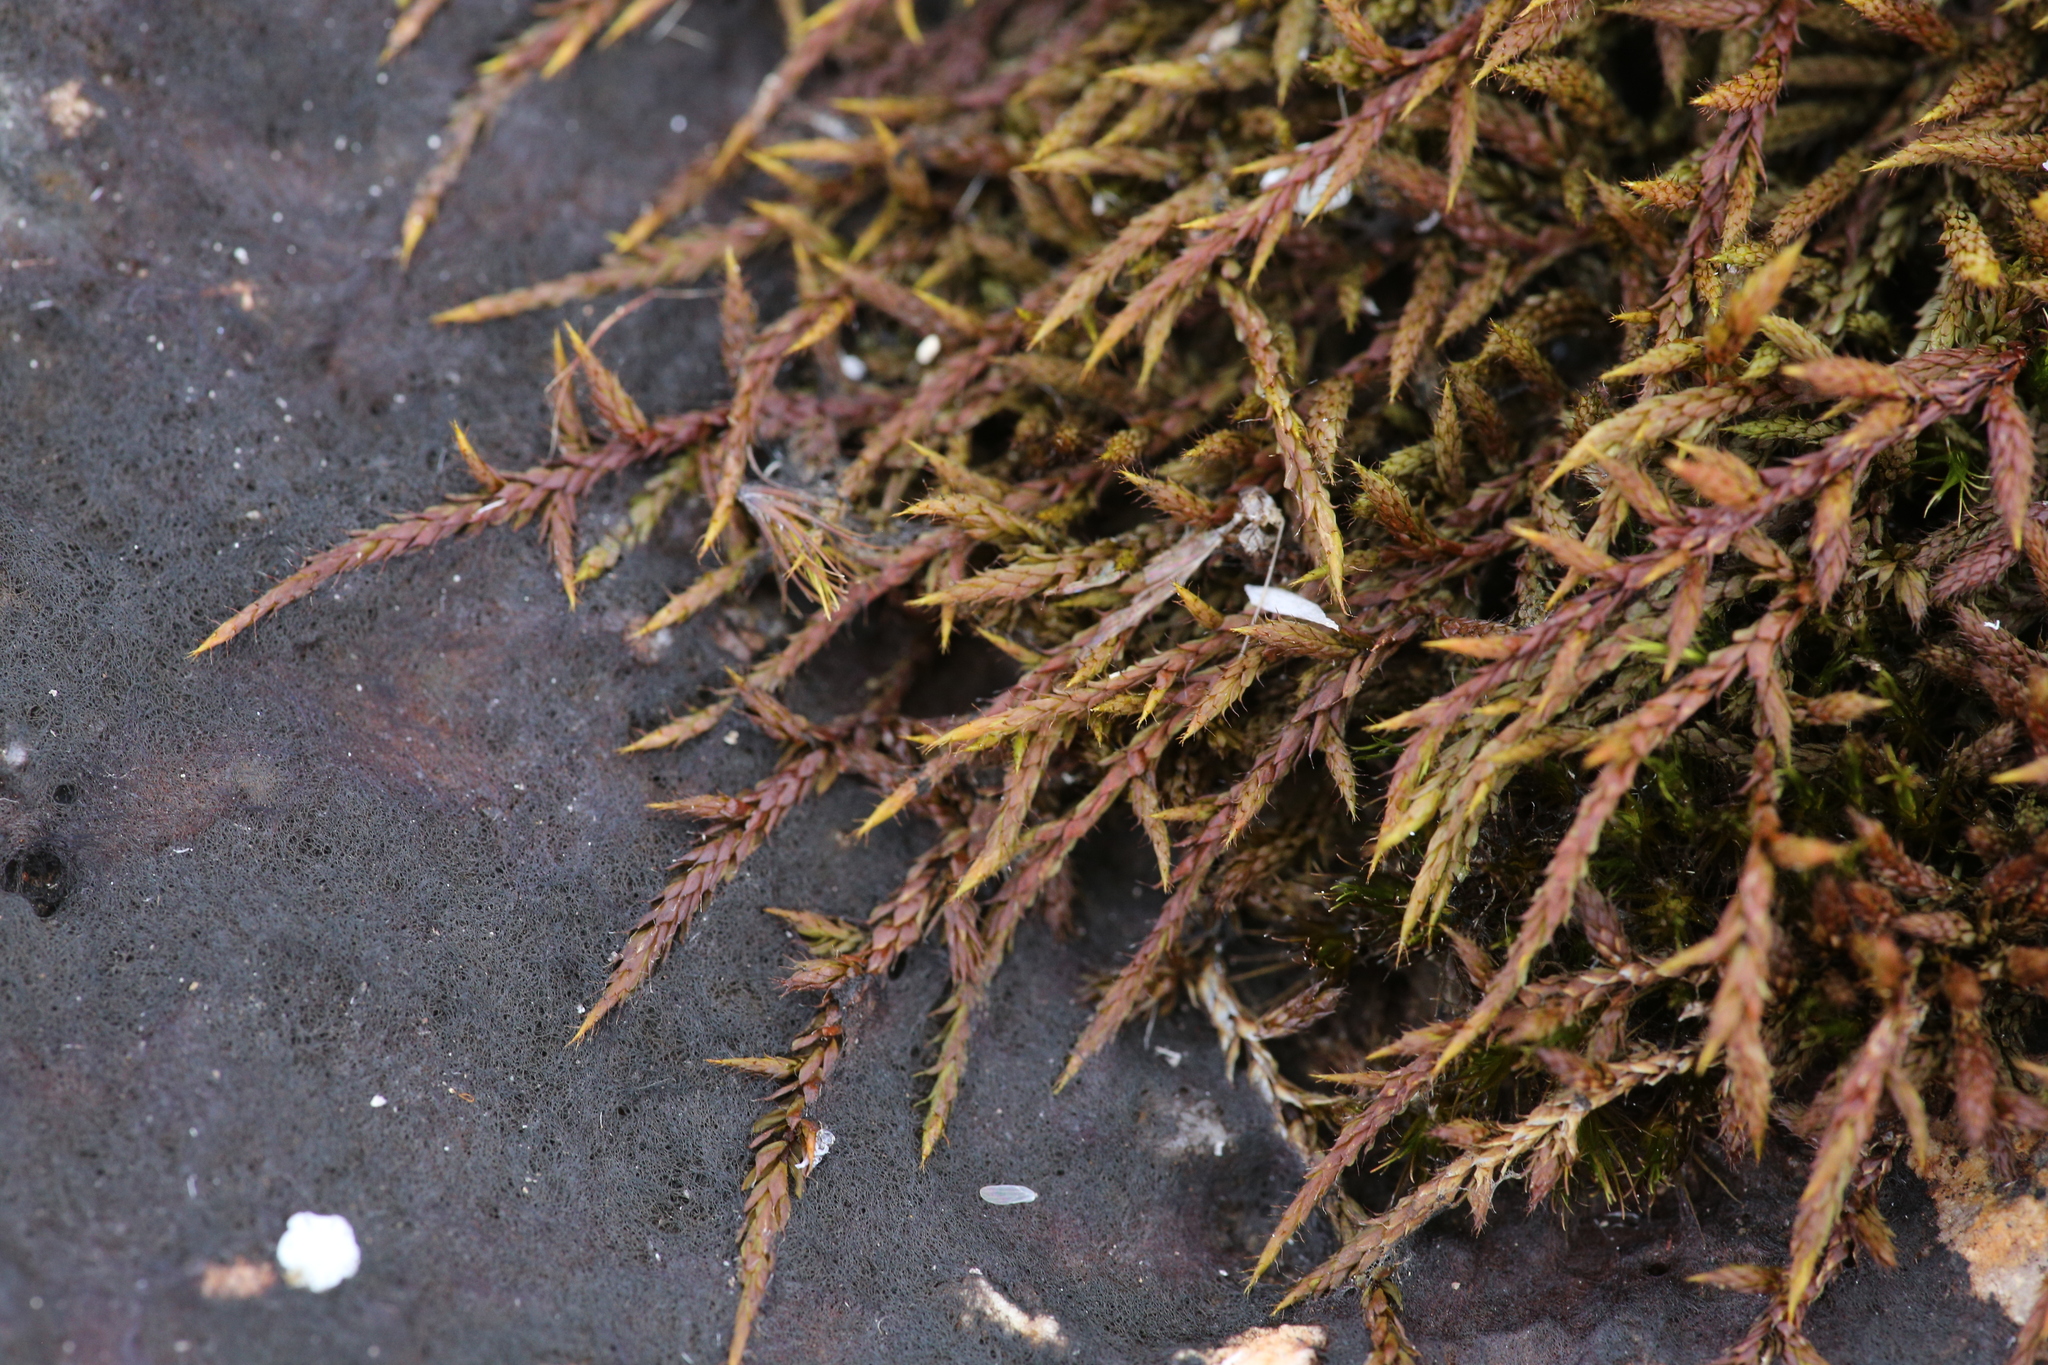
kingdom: Plantae
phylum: Bryophyta
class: Bryopsida
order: Hedwigiales
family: Hedwigiaceae
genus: Rhacocarpus
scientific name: Rhacocarpus purpurascens
